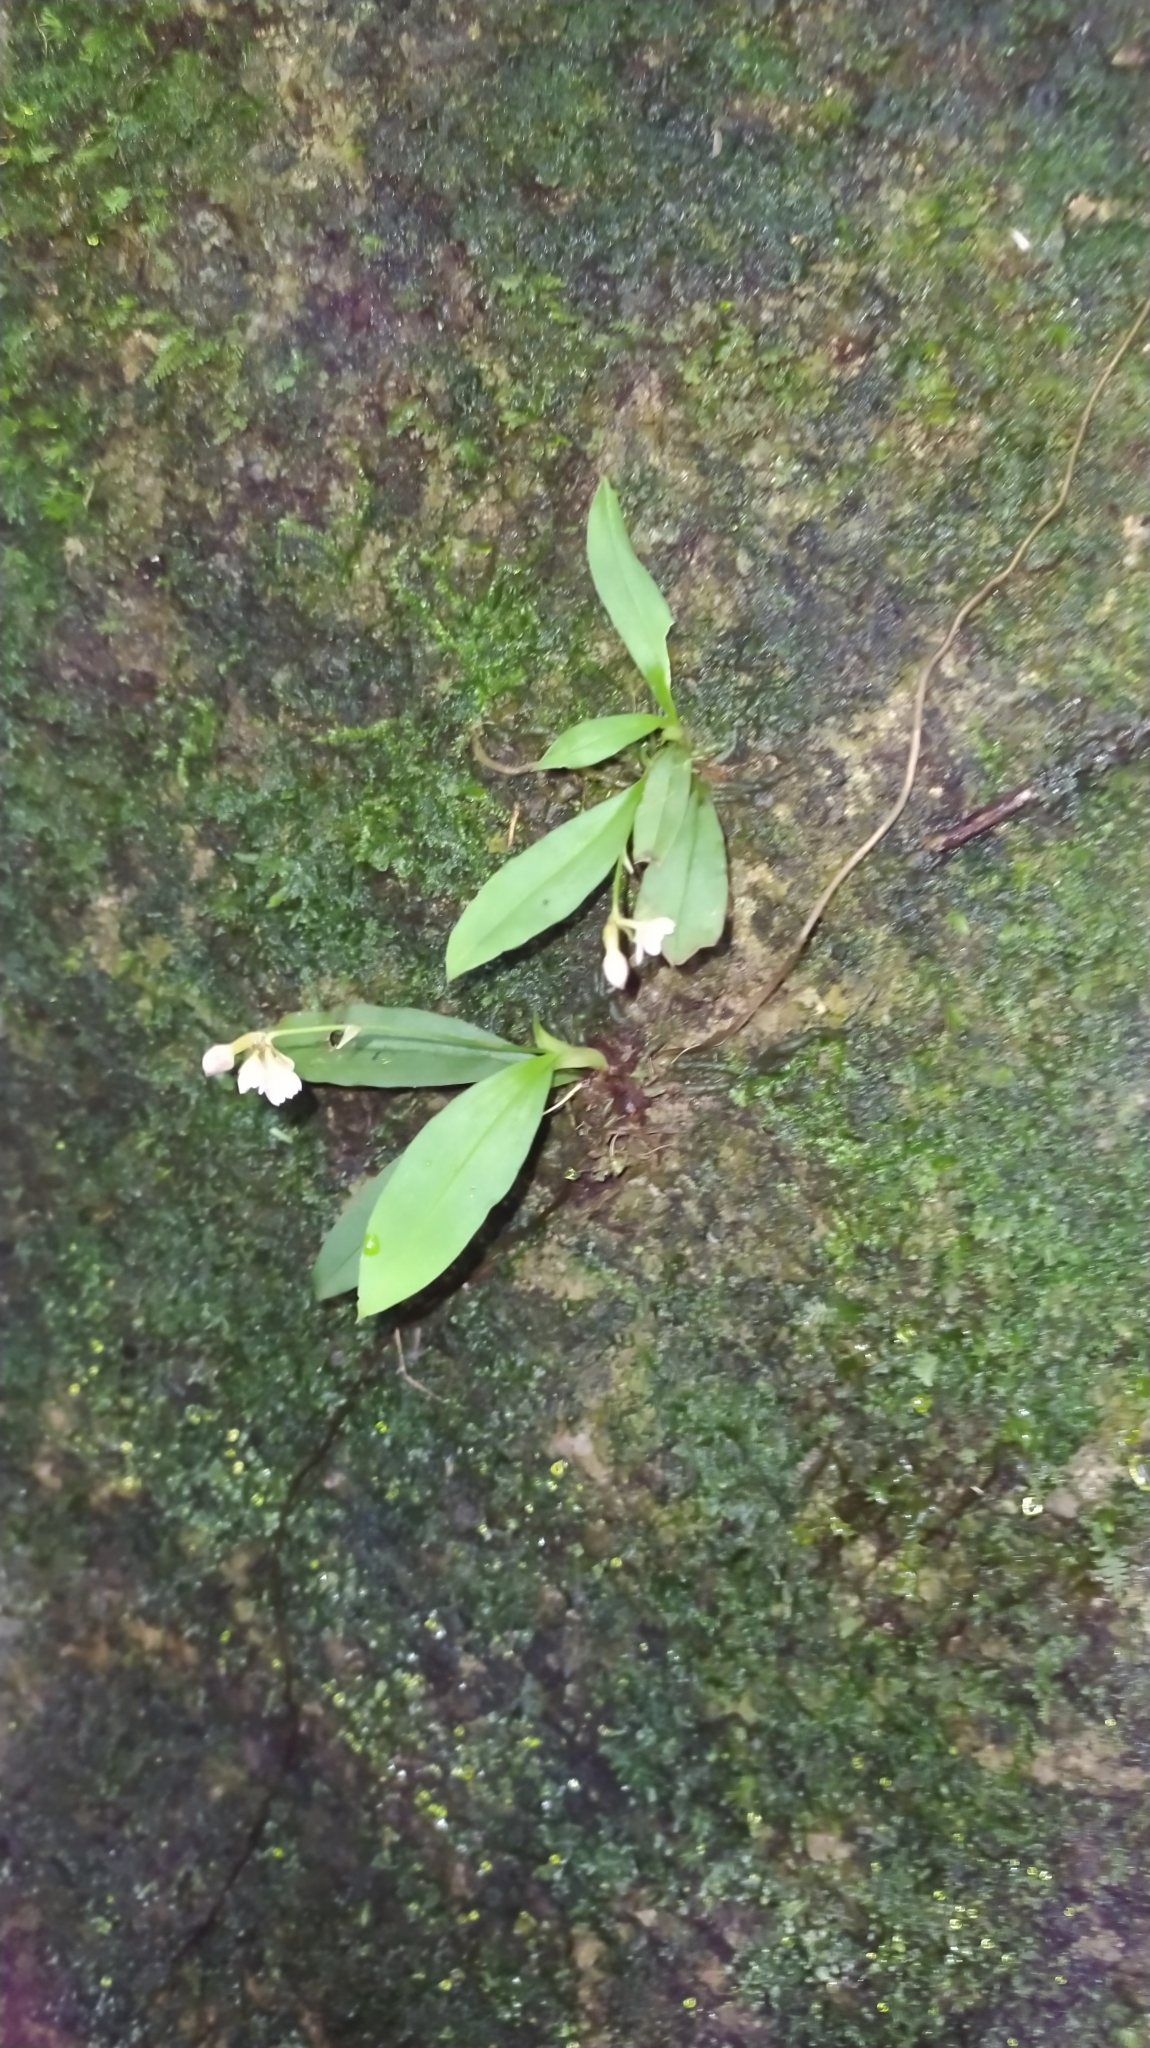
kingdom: Plantae
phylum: Tracheophyta
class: Liliopsida
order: Asparagales
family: Orchidaceae
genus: Cheiradenia
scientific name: Cheiradenia cuspidata
